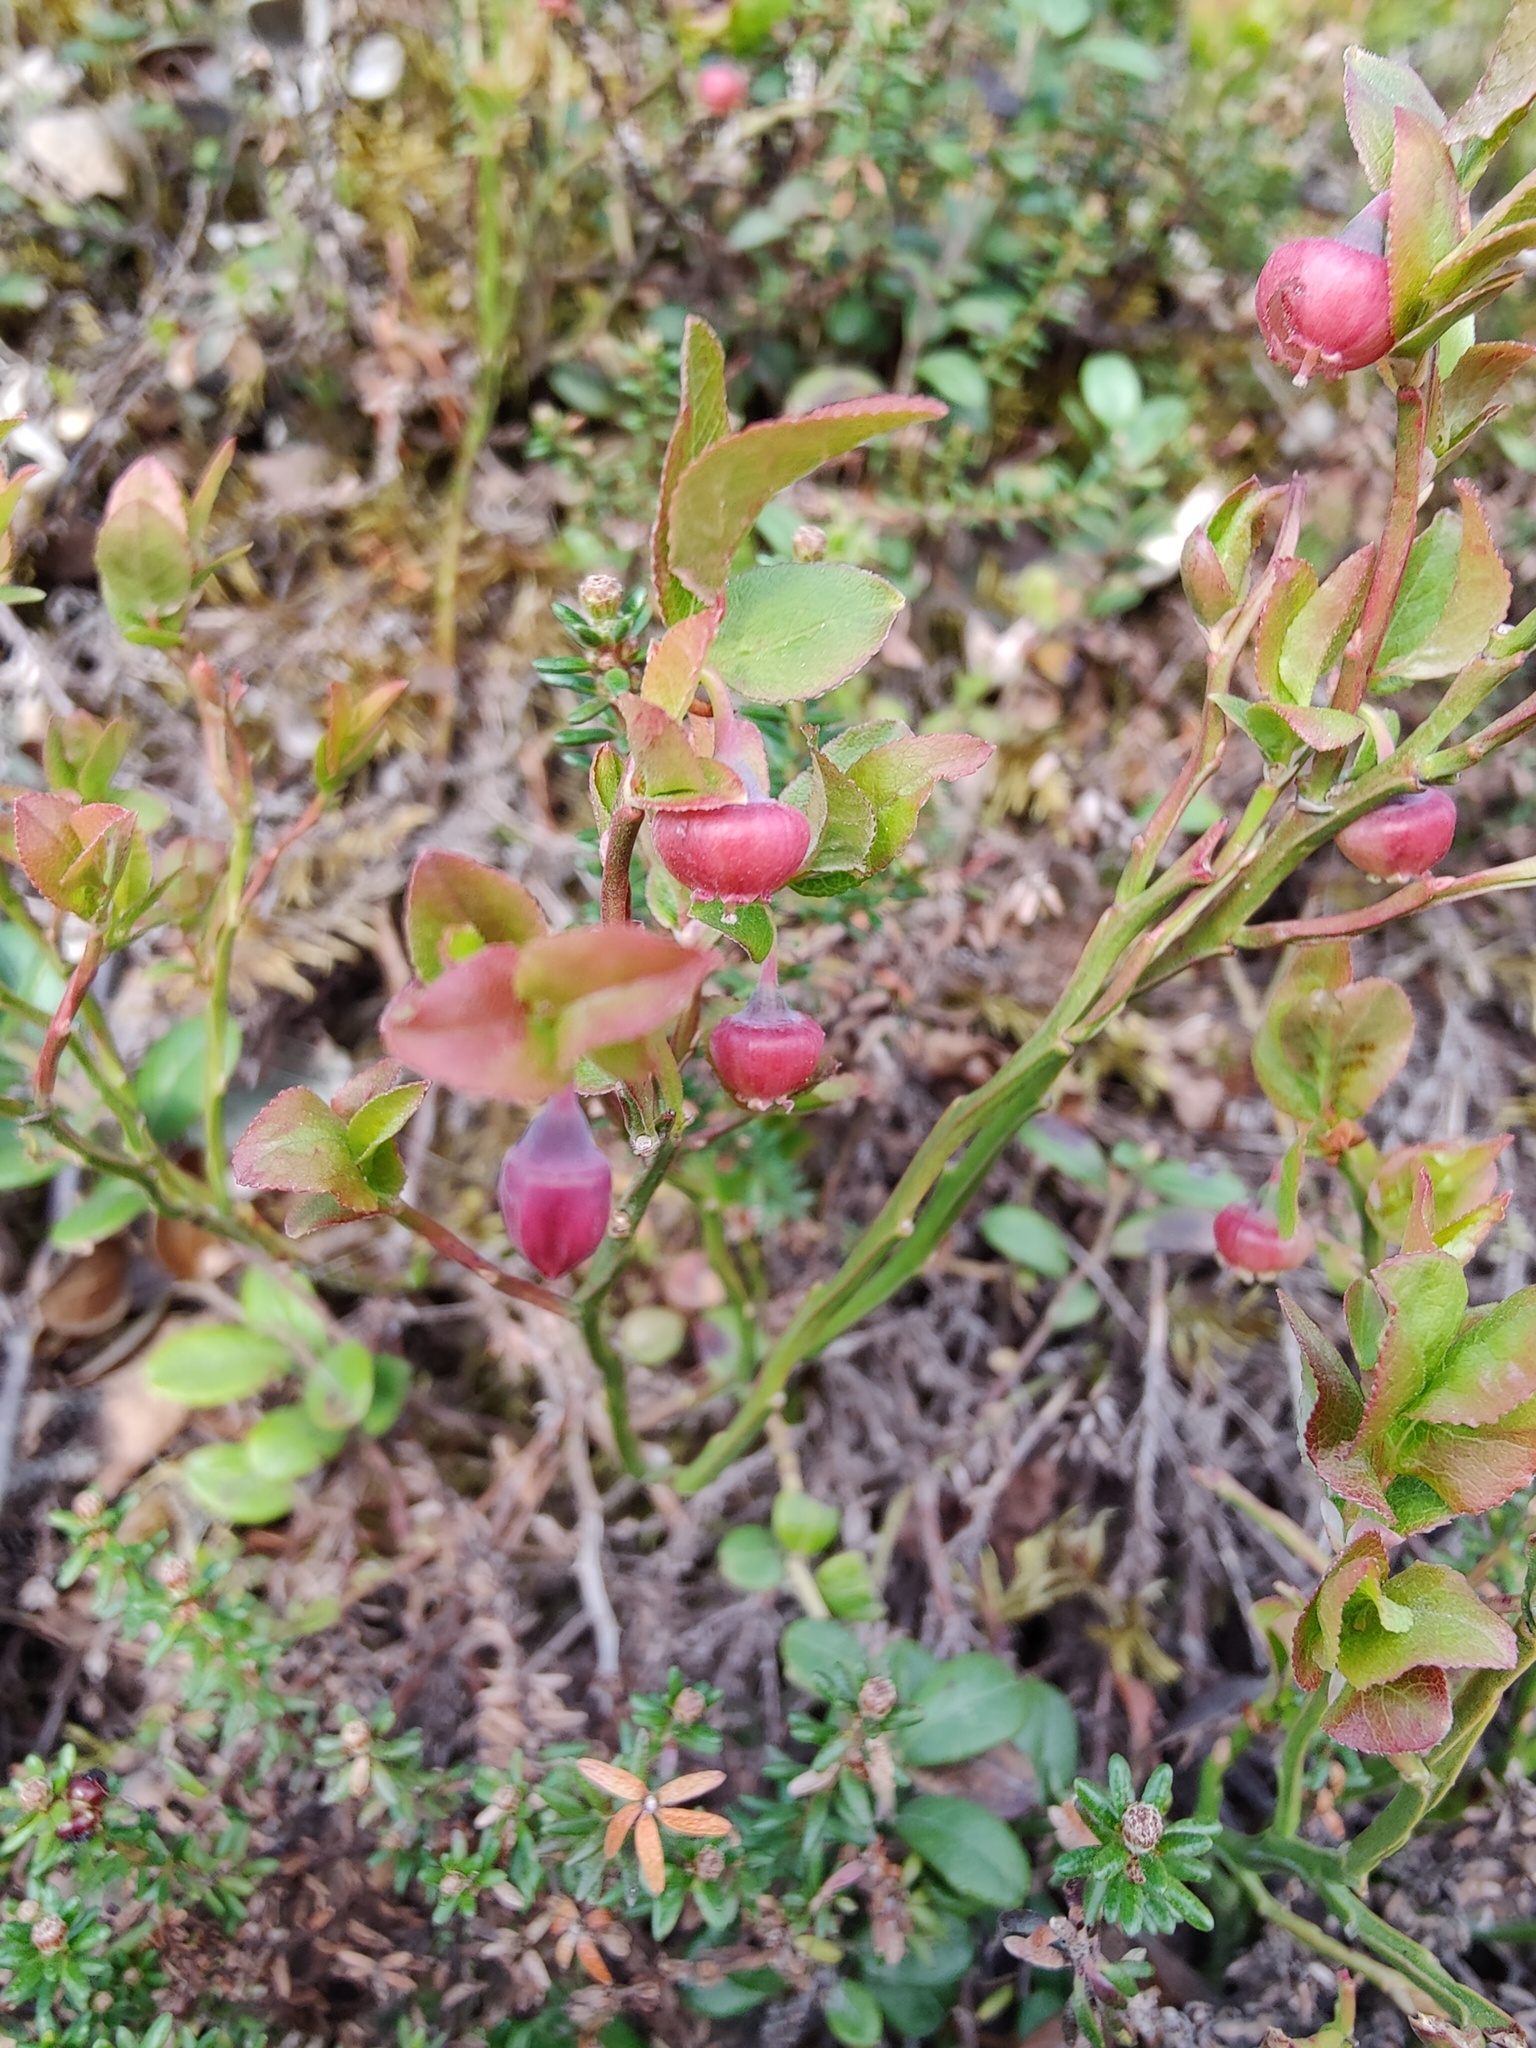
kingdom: Plantae
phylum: Tracheophyta
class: Magnoliopsida
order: Ericales
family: Ericaceae
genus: Vaccinium
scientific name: Vaccinium myrtillus
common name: Bilberry
